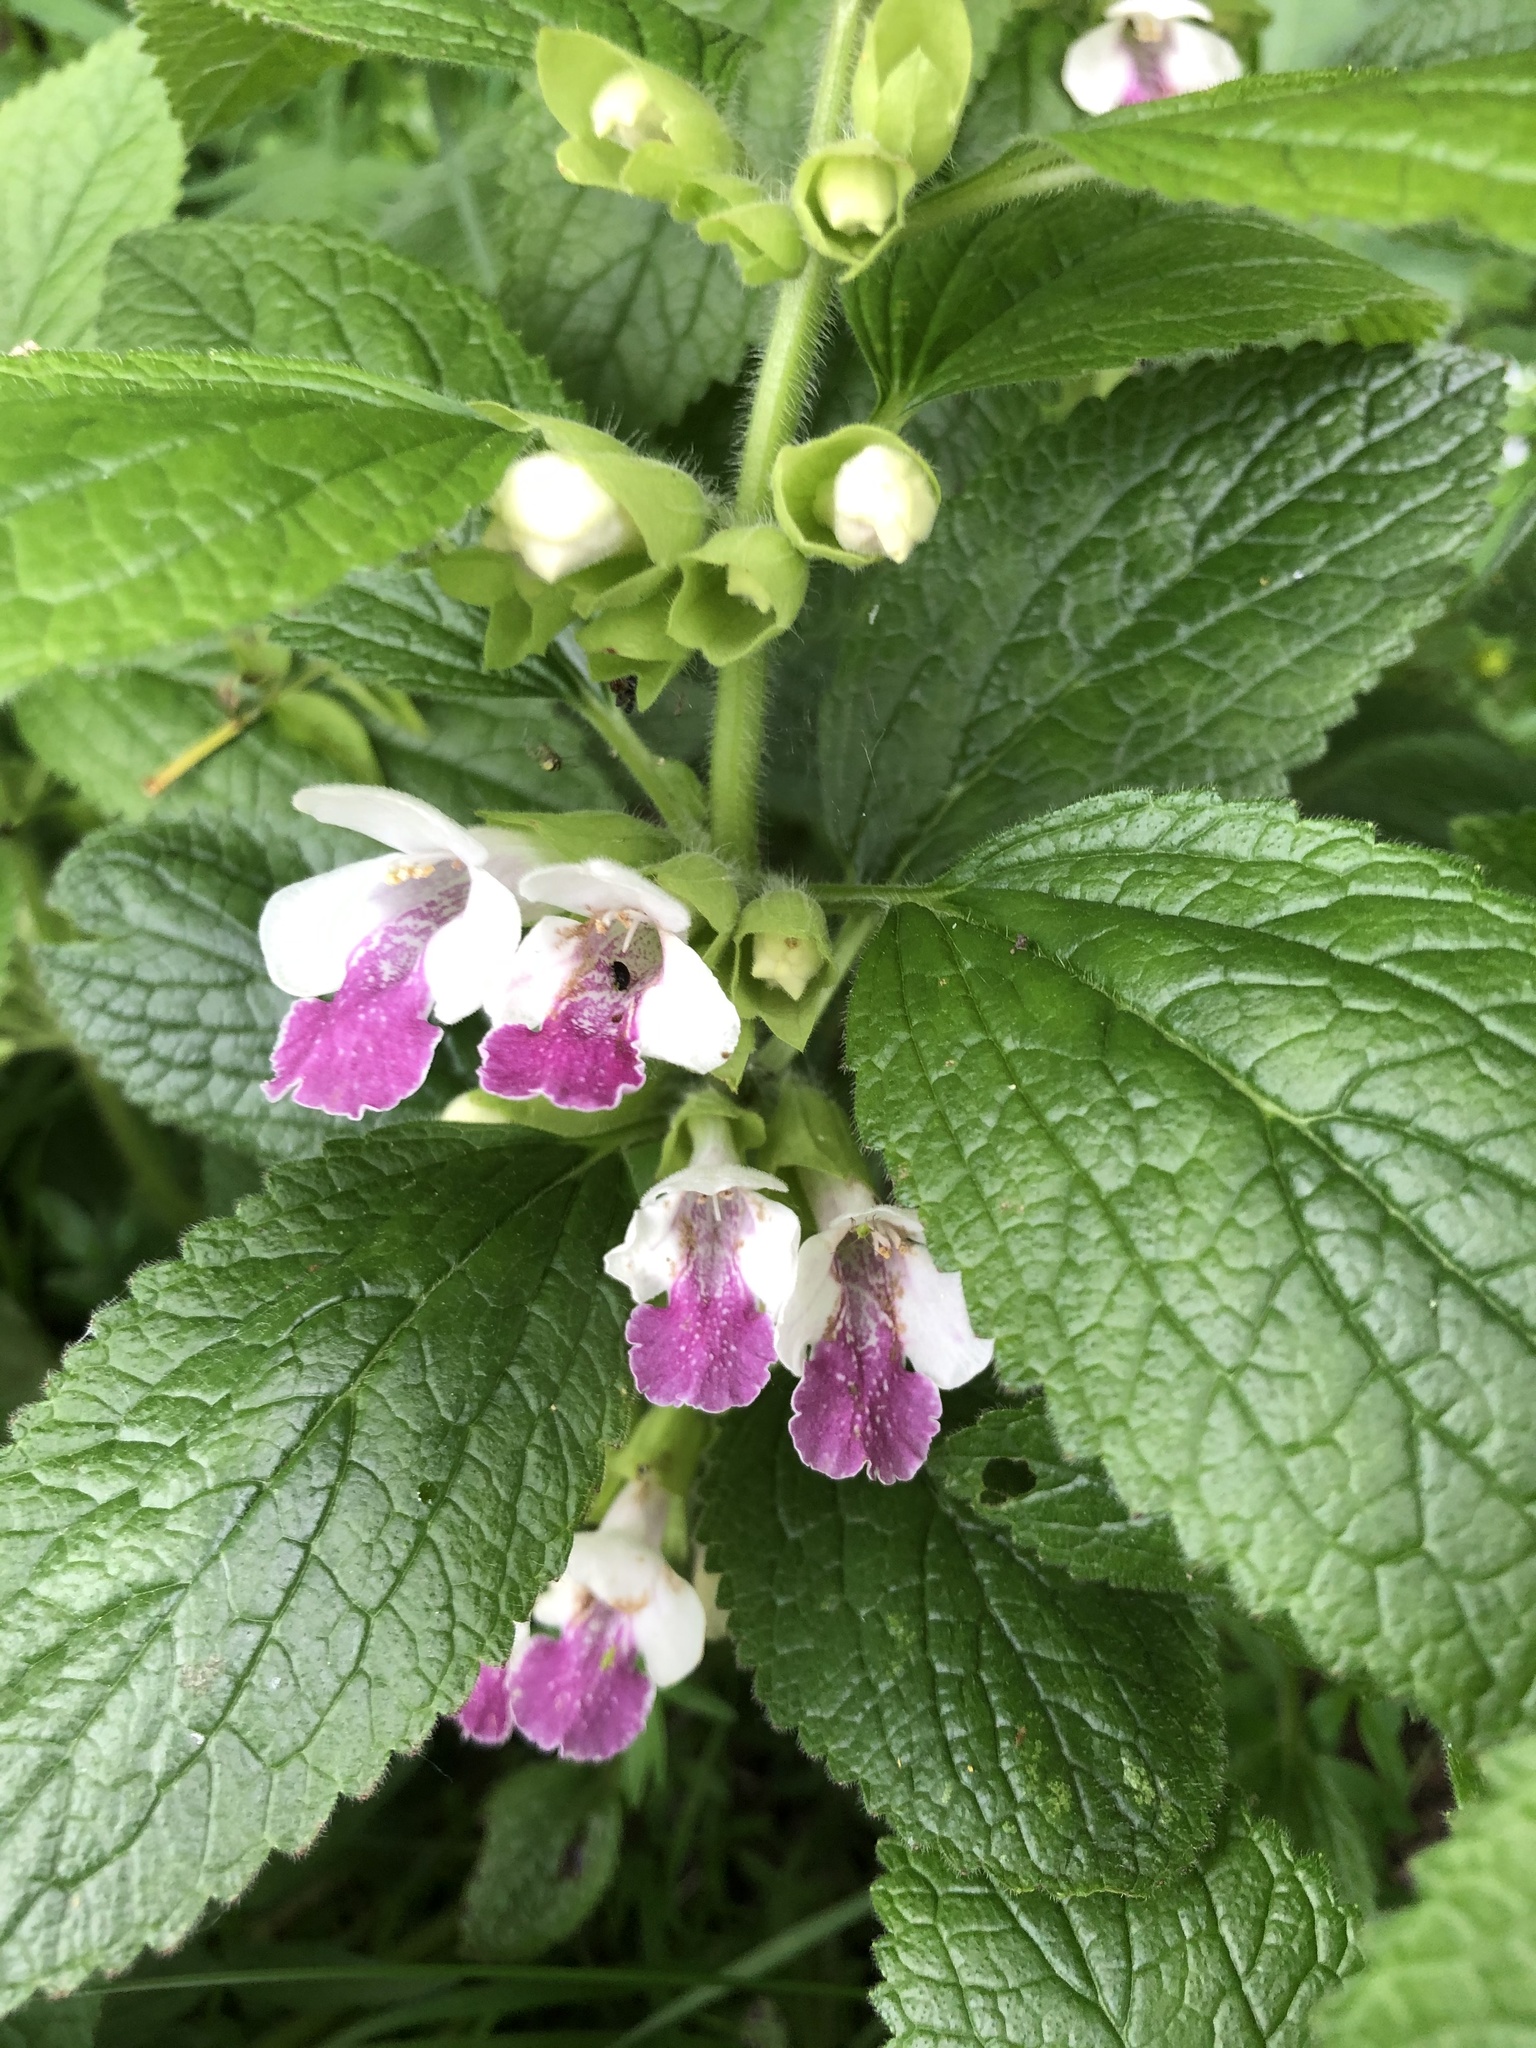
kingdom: Plantae
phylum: Tracheophyta
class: Magnoliopsida
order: Lamiales
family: Lamiaceae
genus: Melittis
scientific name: Melittis melissophyllum
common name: Bastard balm
